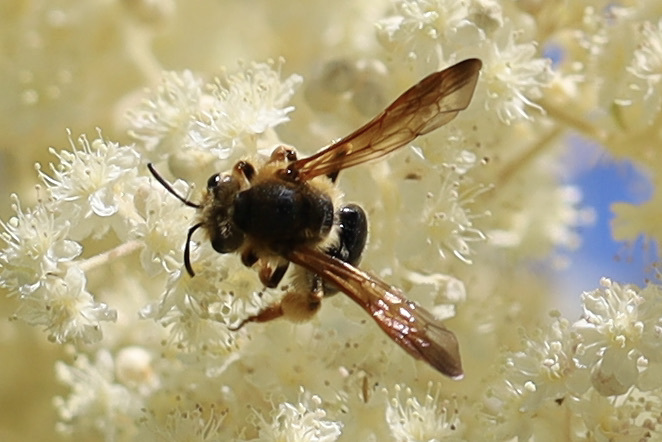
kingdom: Animalia
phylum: Arthropoda
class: Insecta
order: Hymenoptera
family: Andrenidae
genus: Andrena
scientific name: Andrena prunorum
